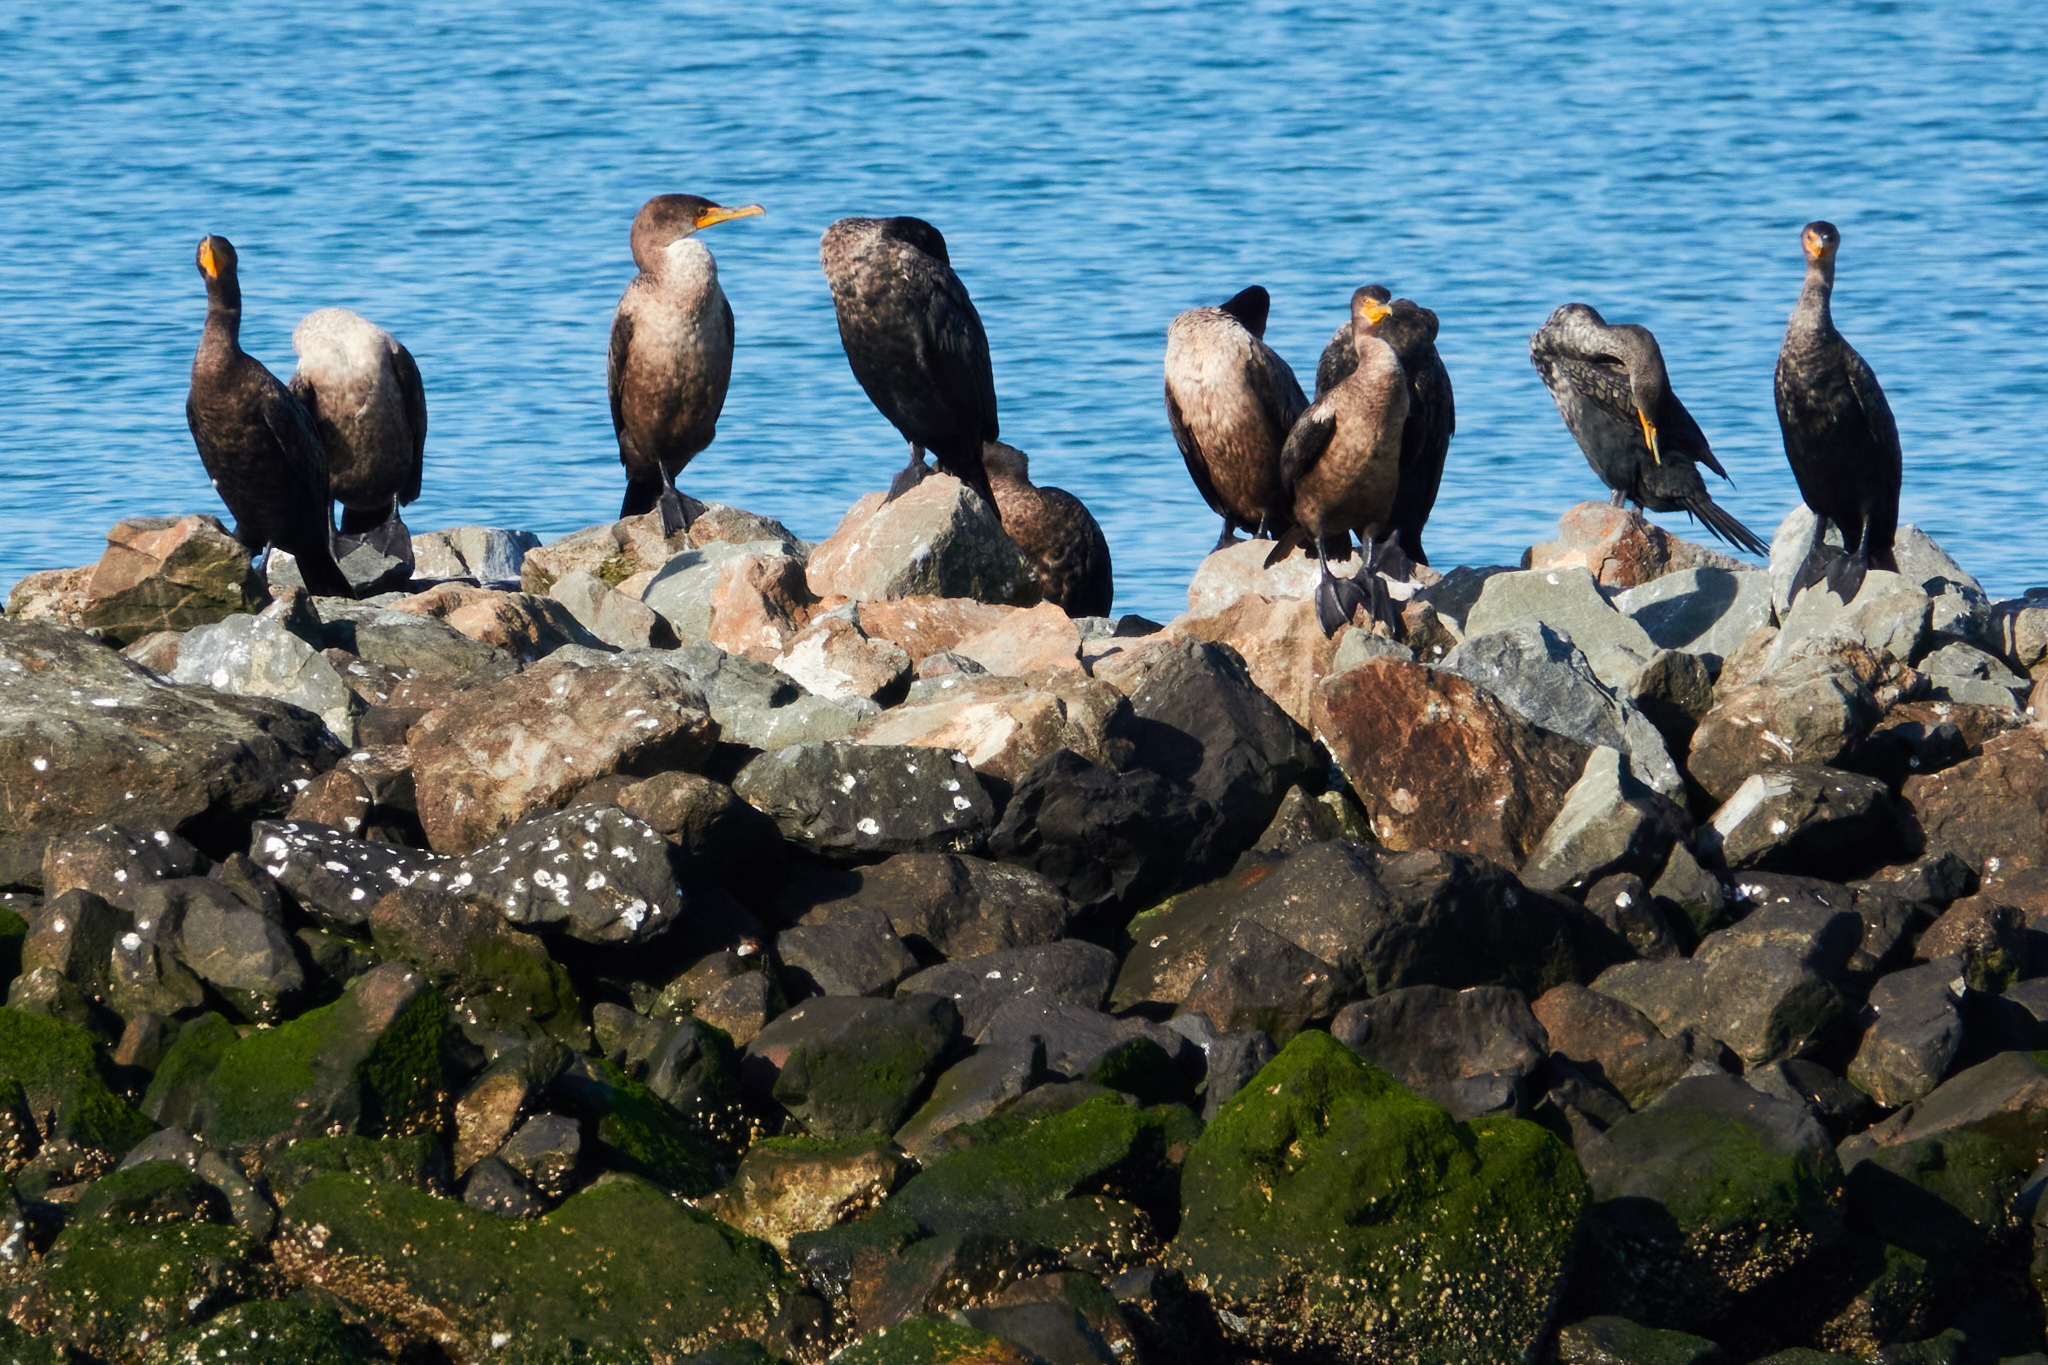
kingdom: Animalia
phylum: Chordata
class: Aves
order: Suliformes
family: Phalacrocoracidae
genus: Phalacrocorax
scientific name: Phalacrocorax auritus
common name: Double-crested cormorant
